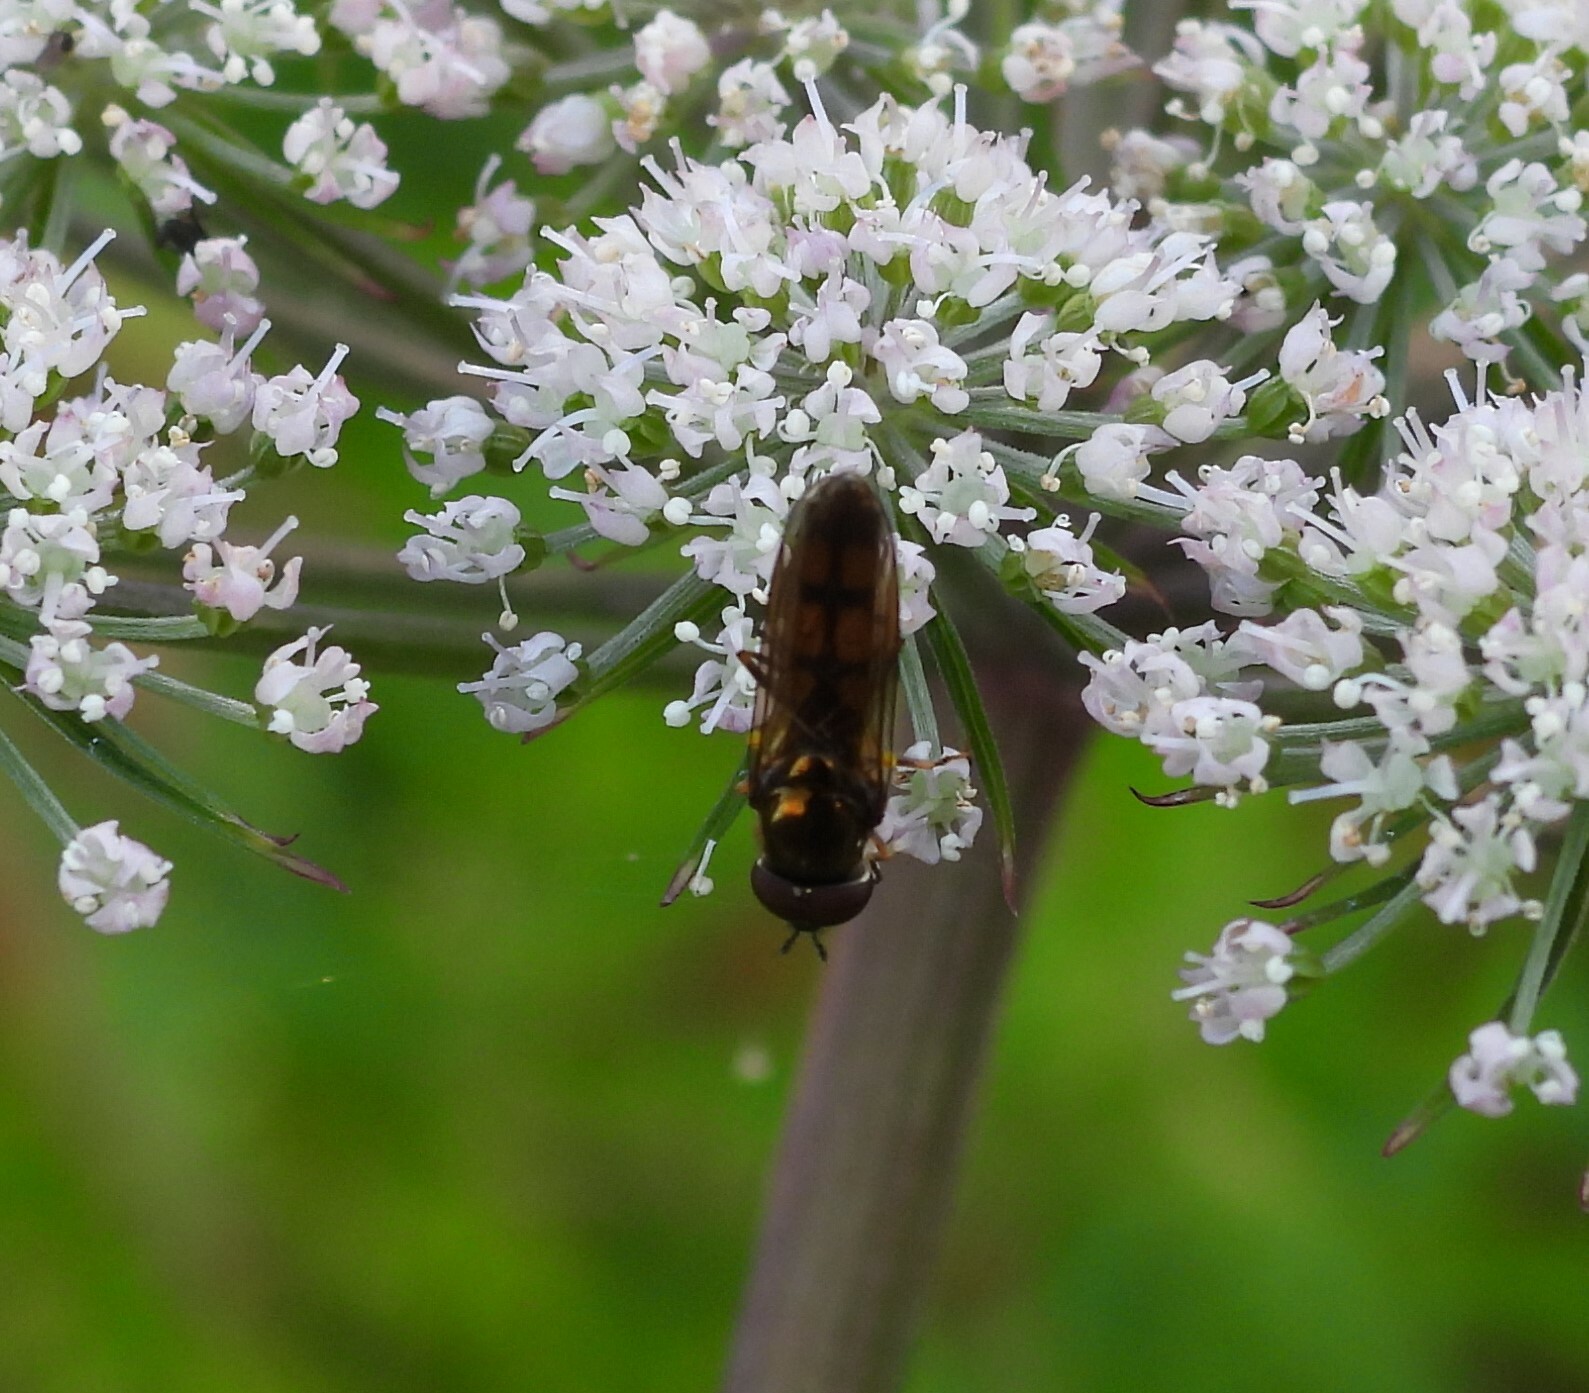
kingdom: Animalia
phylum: Arthropoda
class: Insecta
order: Diptera
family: Syrphidae
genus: Melanostoma
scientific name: Melanostoma mellina
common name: Hover fly
